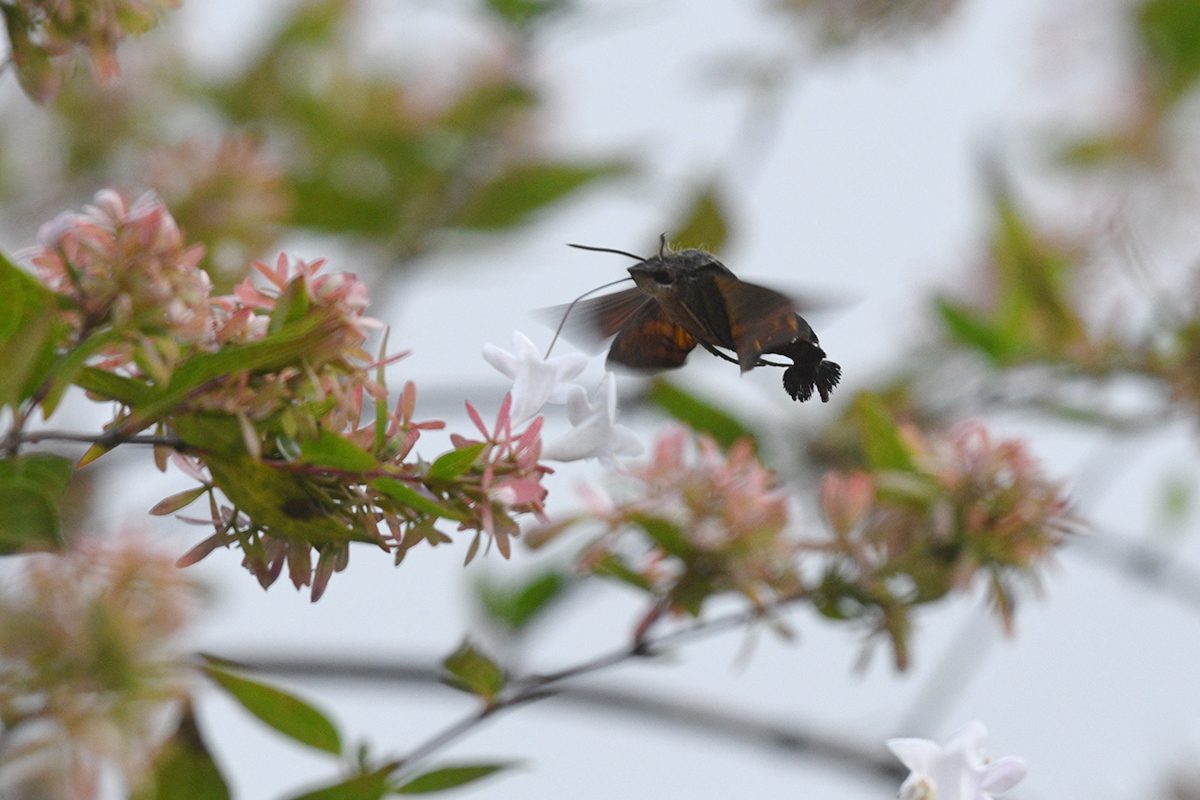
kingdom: Animalia
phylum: Arthropoda
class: Insecta
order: Lepidoptera
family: Sphingidae
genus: Macroglossum
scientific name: Macroglossum pyrrhosticta
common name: Hummingbird hawk moth
